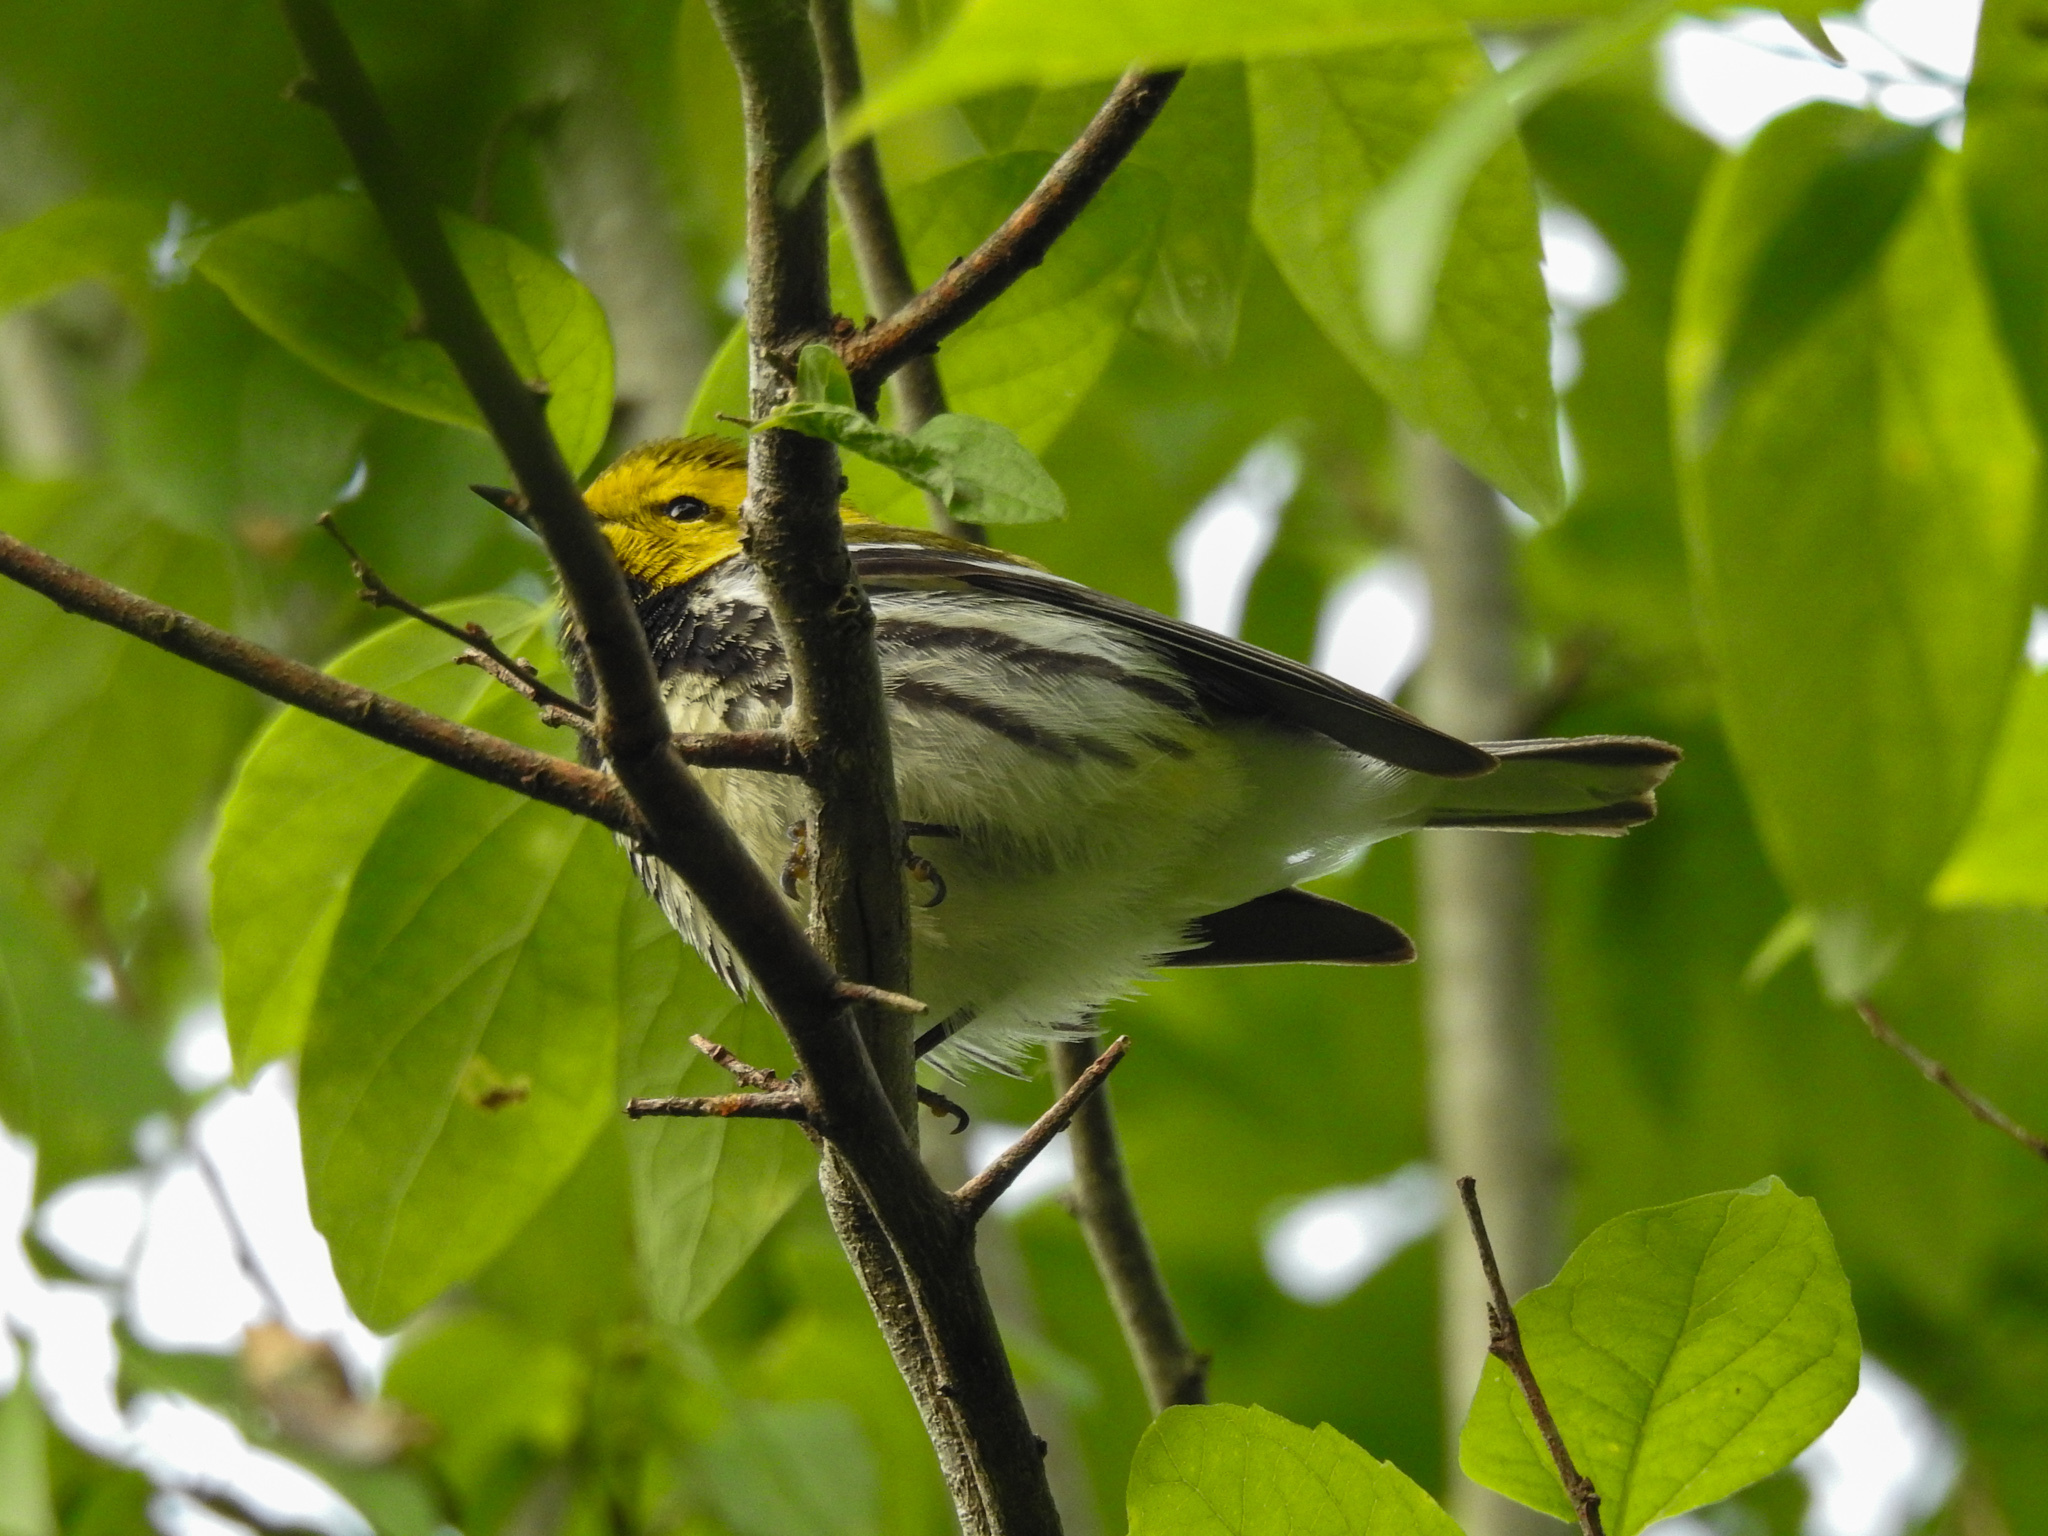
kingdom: Animalia
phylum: Chordata
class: Aves
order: Passeriformes
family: Parulidae
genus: Setophaga
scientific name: Setophaga virens
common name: Black-throated green warbler
